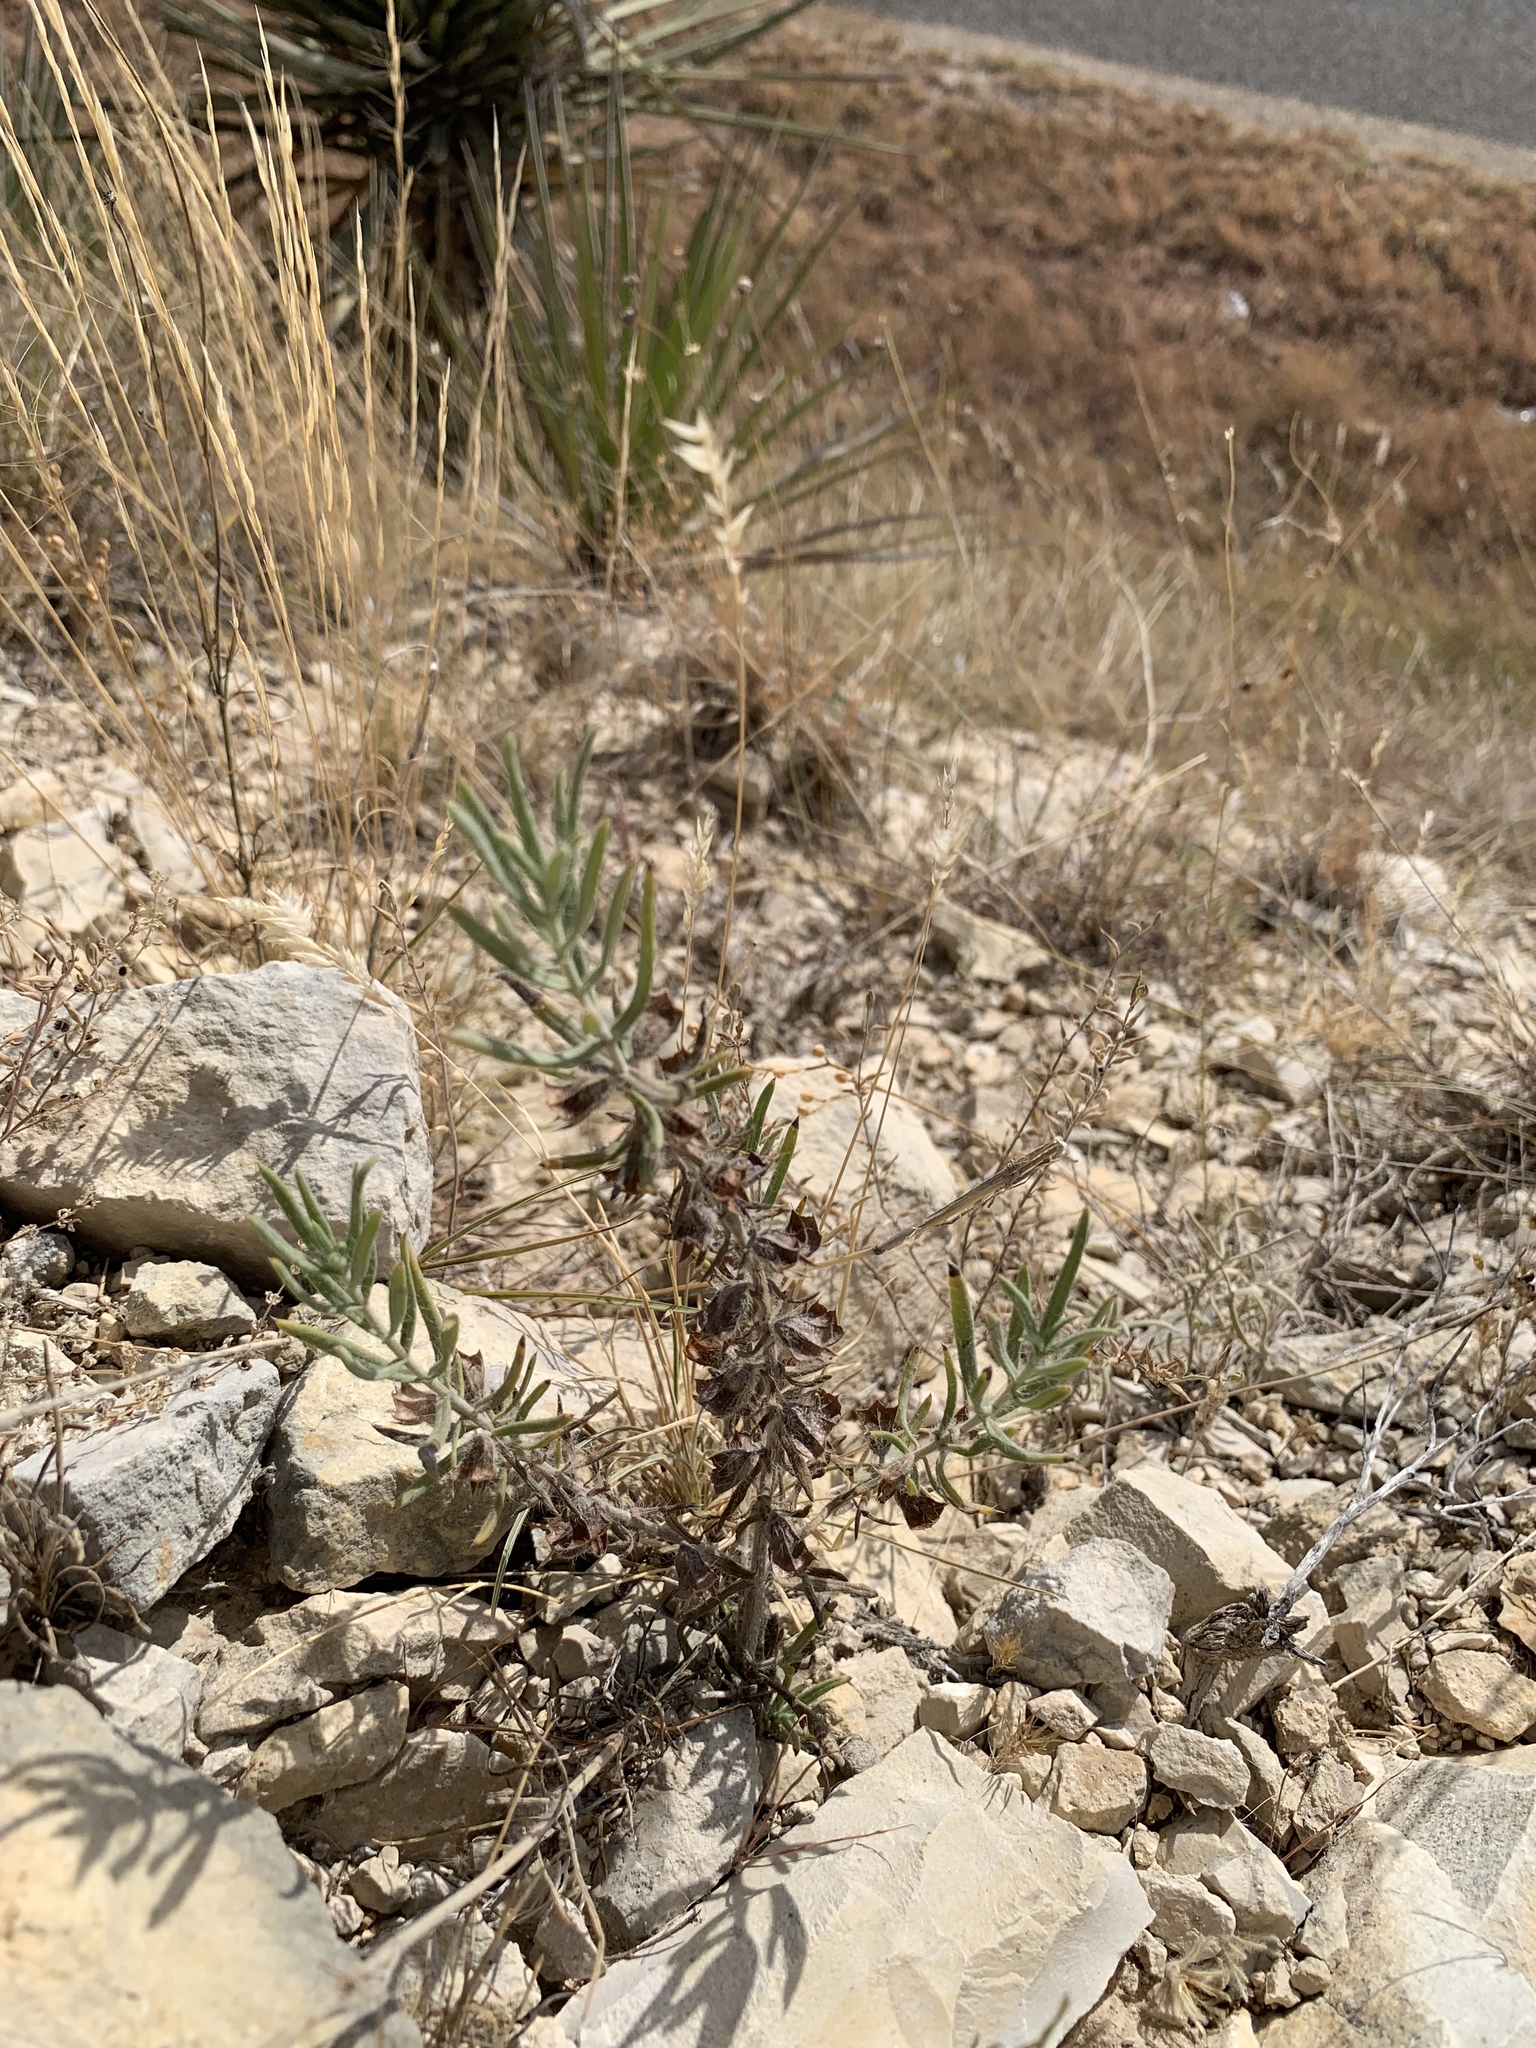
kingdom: Plantae
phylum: Tracheophyta
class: Magnoliopsida
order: Lamiales
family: Lamiaceae
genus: Salvia
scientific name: Salvia whitehousei
